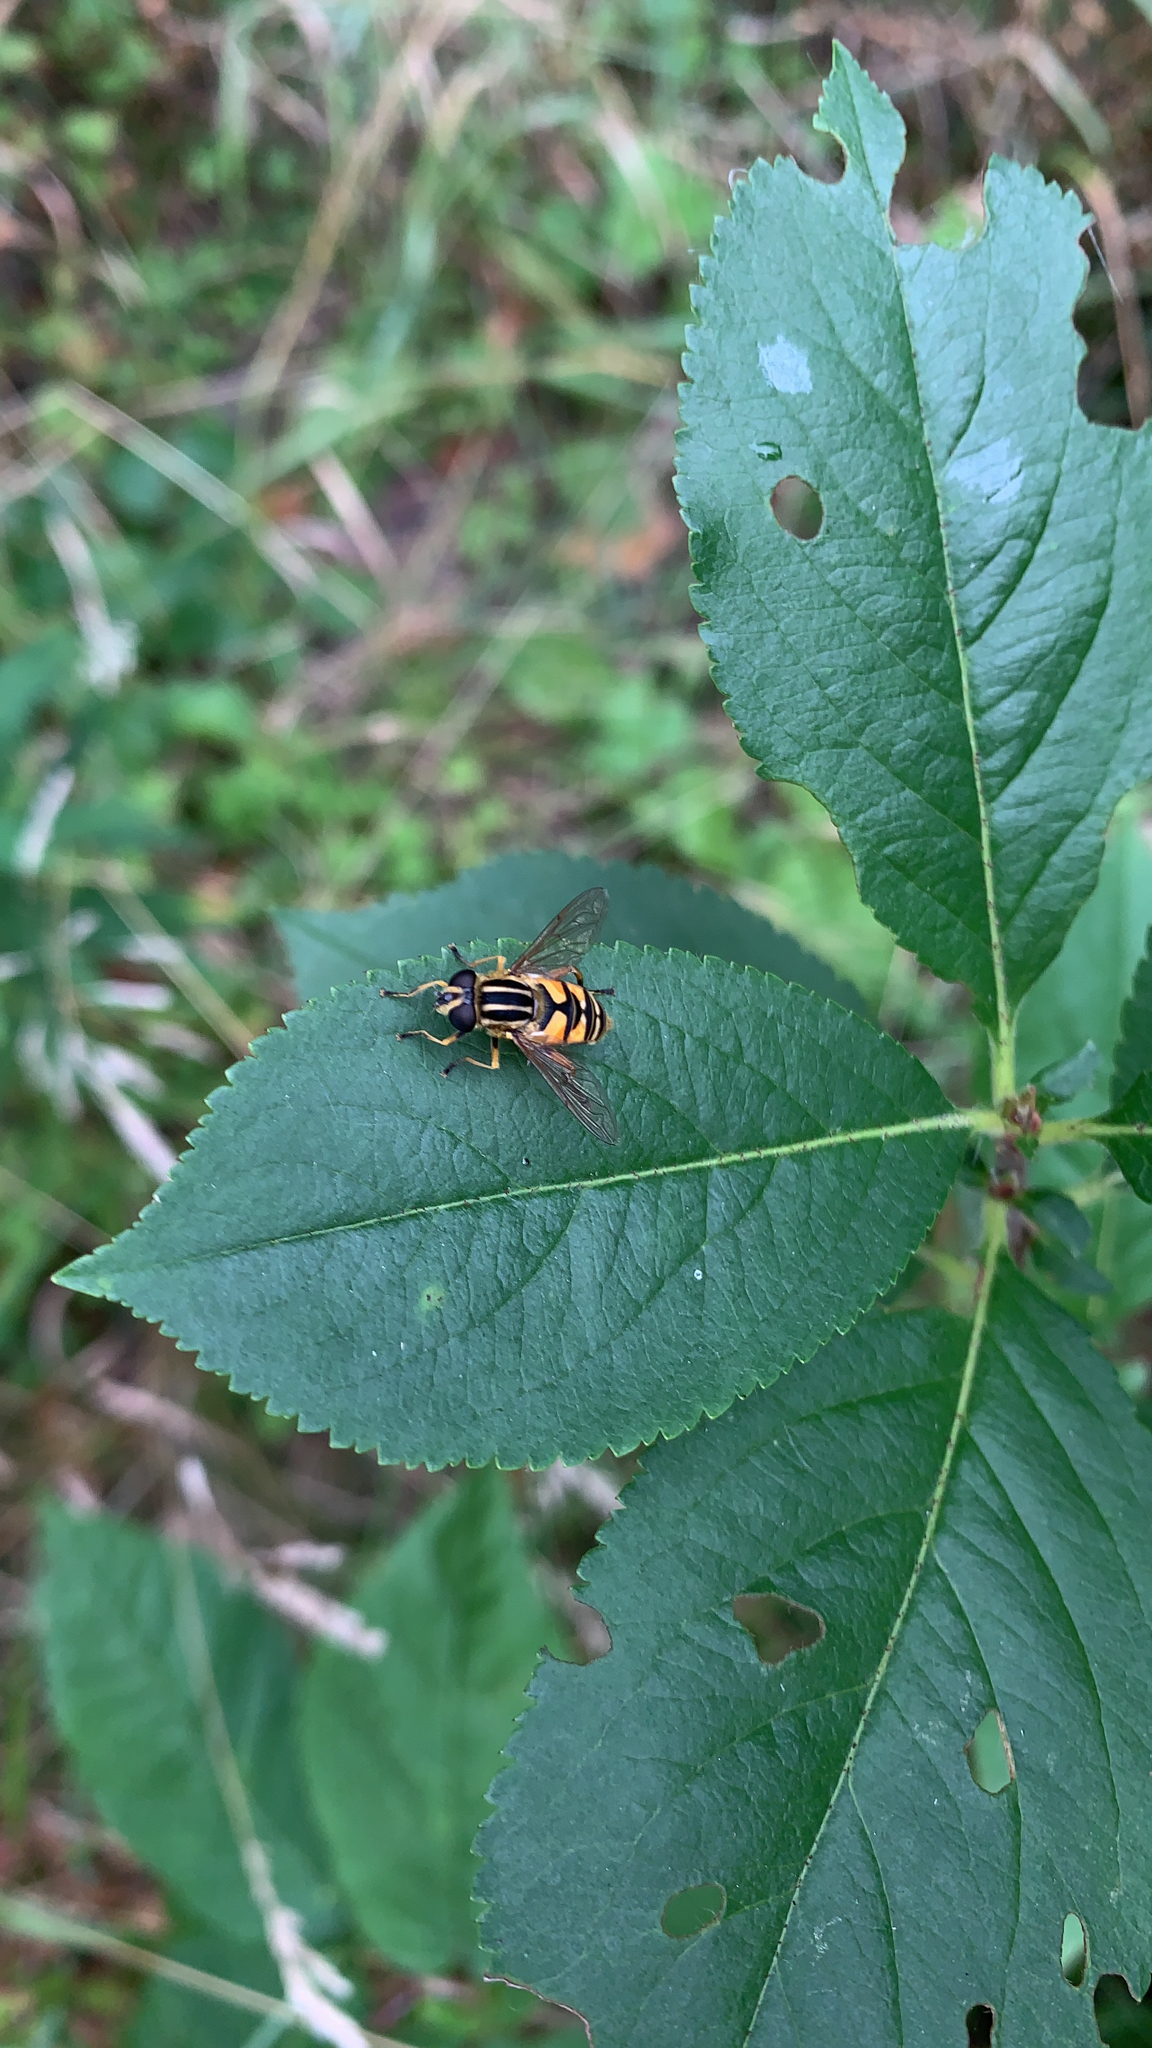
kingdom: Animalia
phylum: Arthropoda
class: Insecta
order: Diptera
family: Syrphidae
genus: Helophilus
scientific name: Helophilus pendulus
